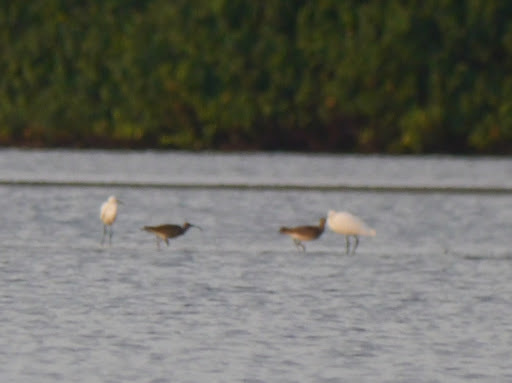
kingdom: Animalia
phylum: Chordata
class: Aves
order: Charadriiformes
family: Scolopacidae
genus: Numenius
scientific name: Numenius phaeopus
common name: Whimbrel
